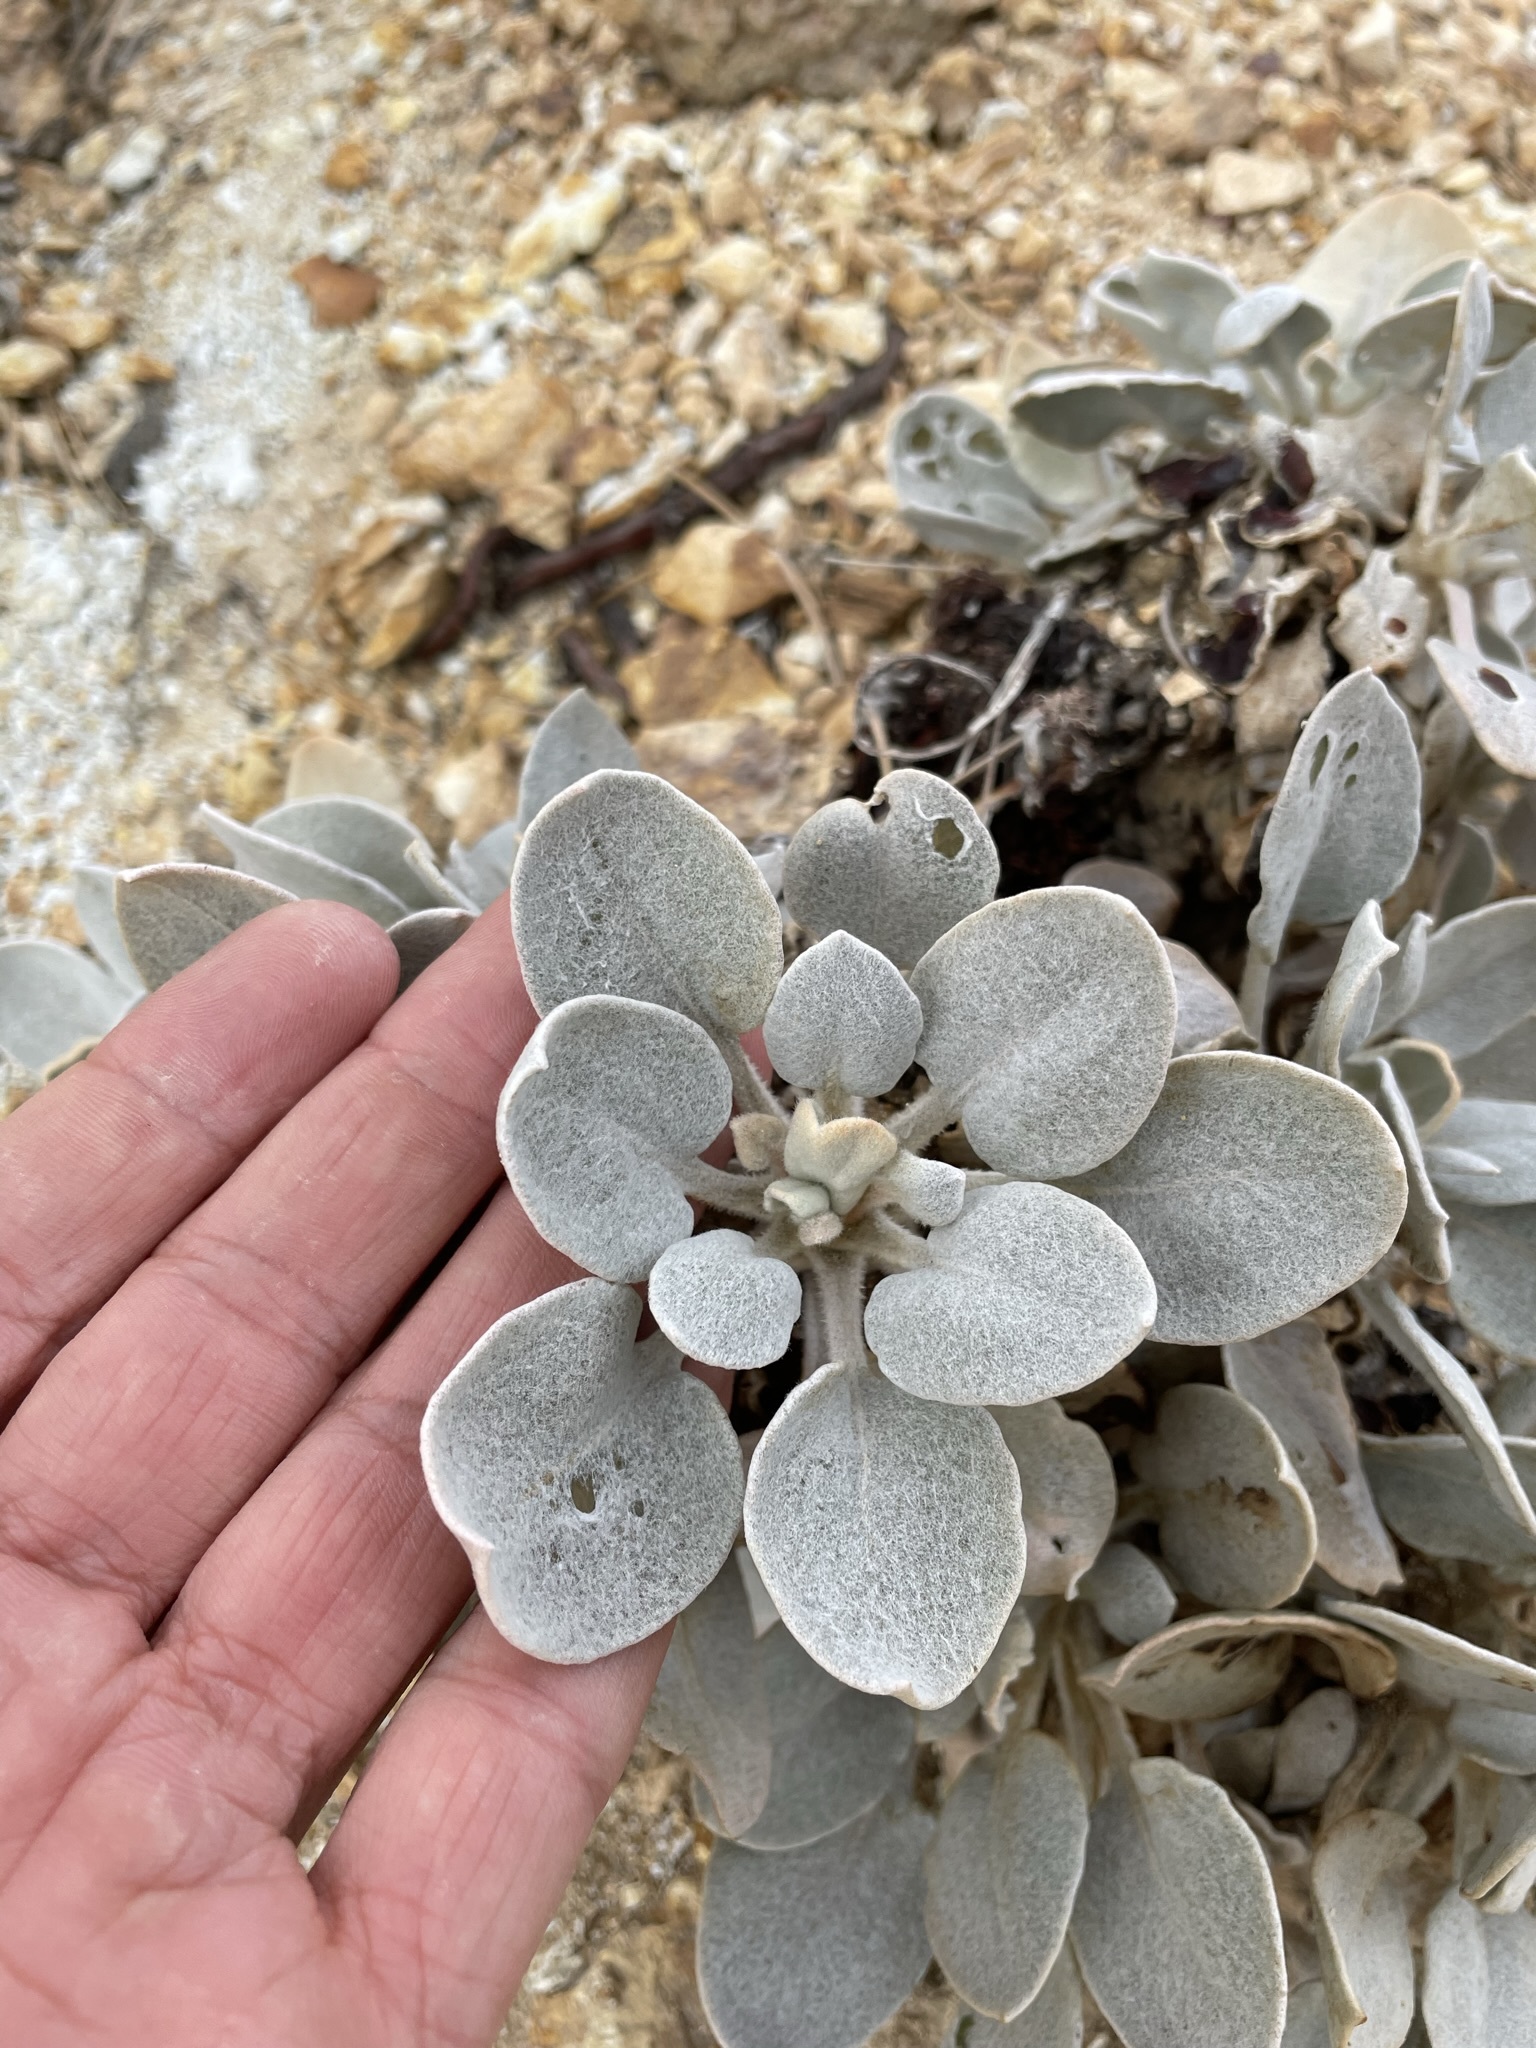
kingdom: Plantae
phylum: Tracheophyta
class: Magnoliopsida
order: Caryophyllales
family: Polygonaceae
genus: Eriogonum
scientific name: Eriogonum robustum
